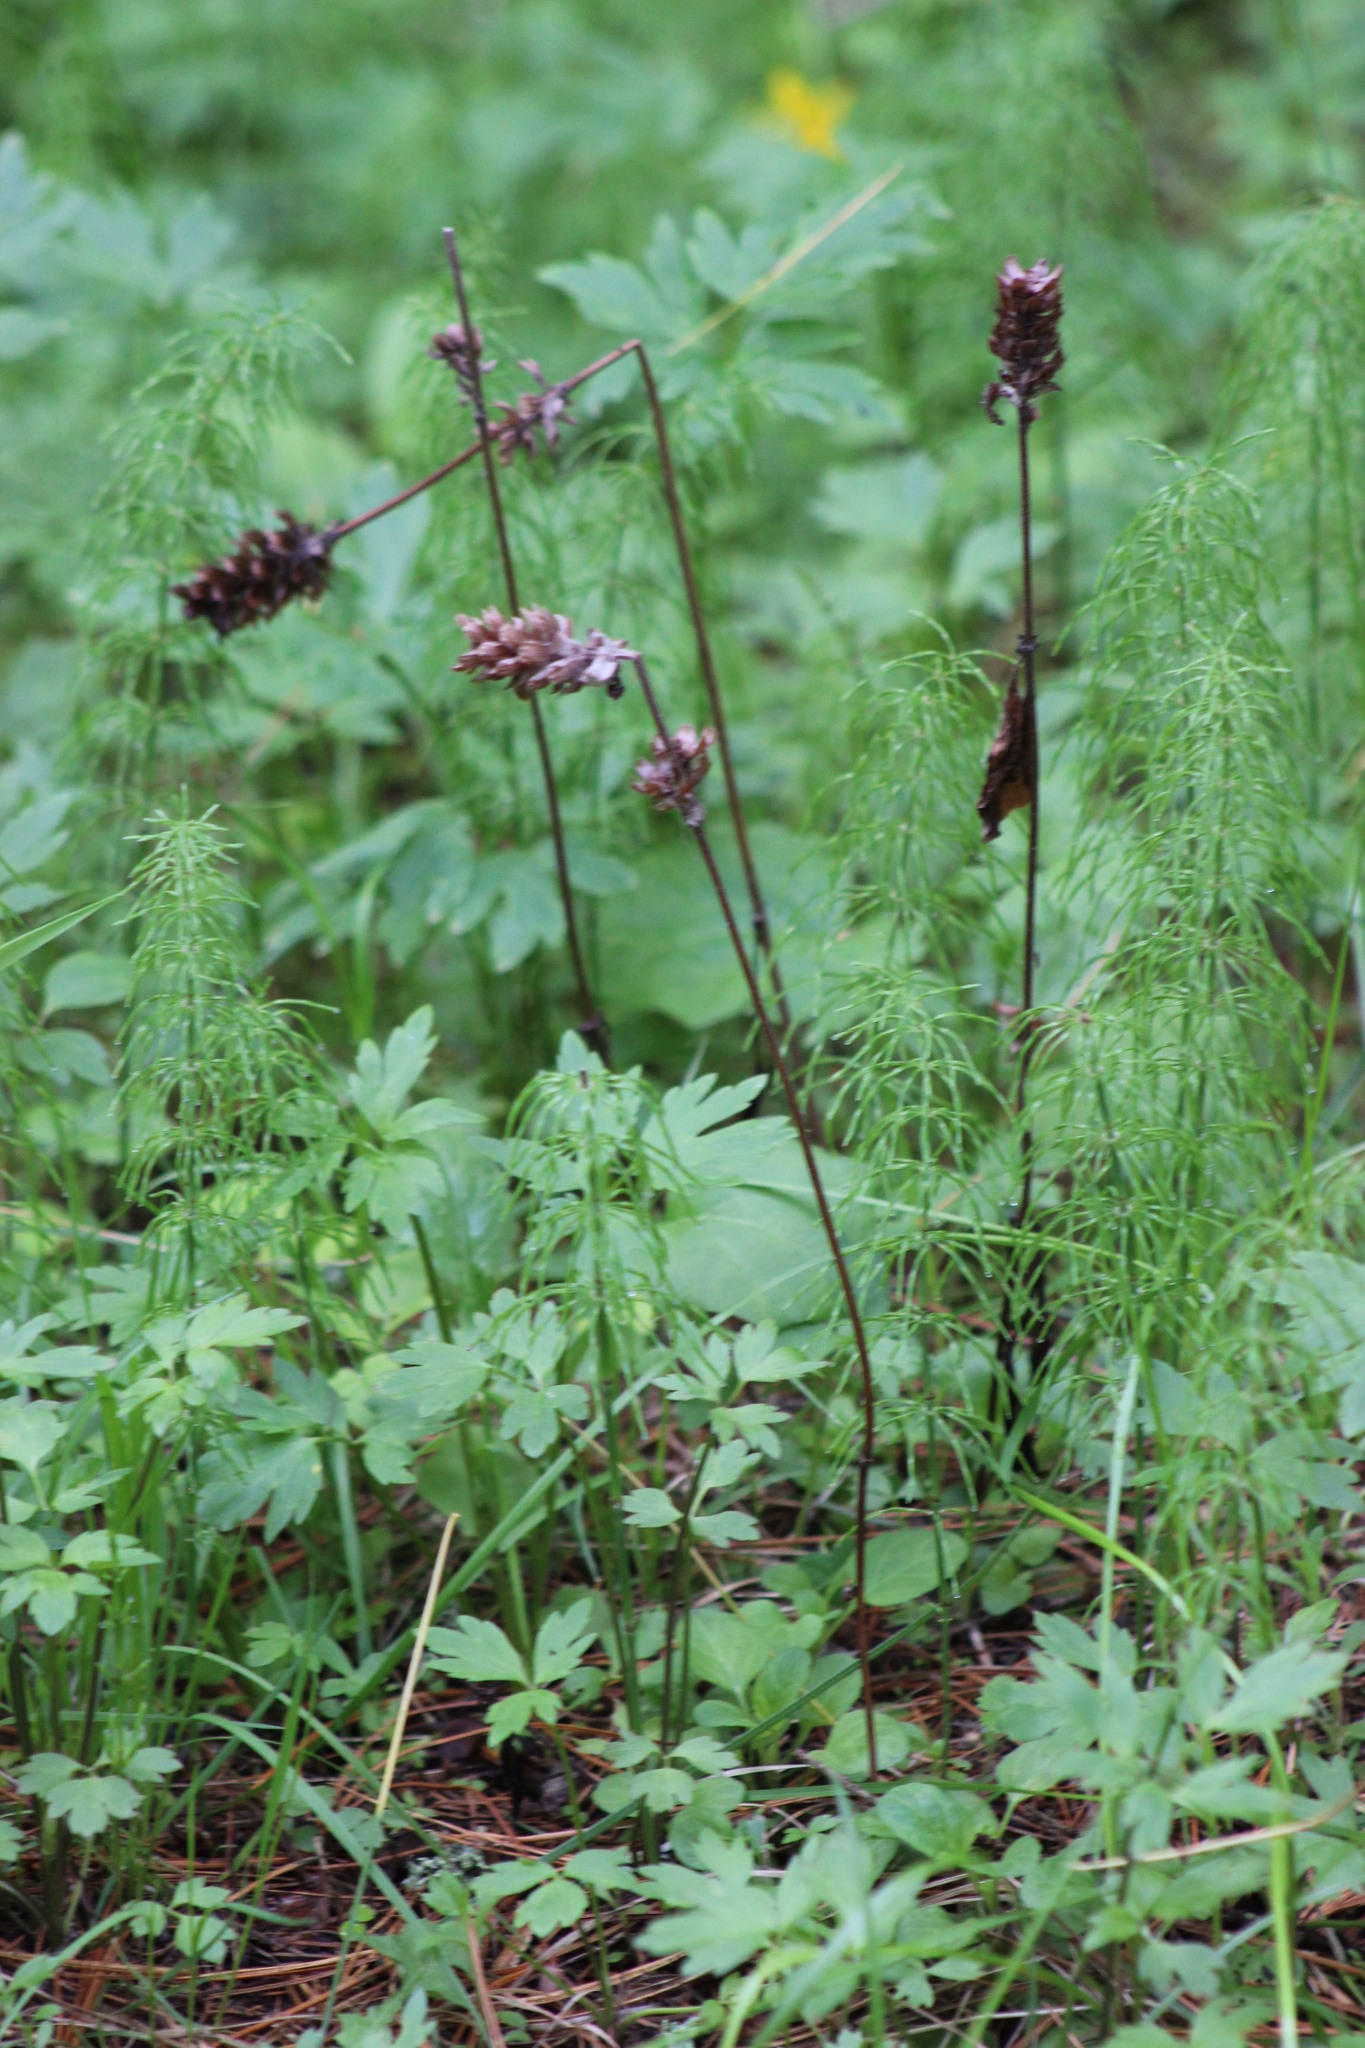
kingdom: Plantae
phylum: Tracheophyta
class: Magnoliopsida
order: Lamiales
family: Lamiaceae
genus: Prunella
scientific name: Prunella vulgaris
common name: Heal-all
